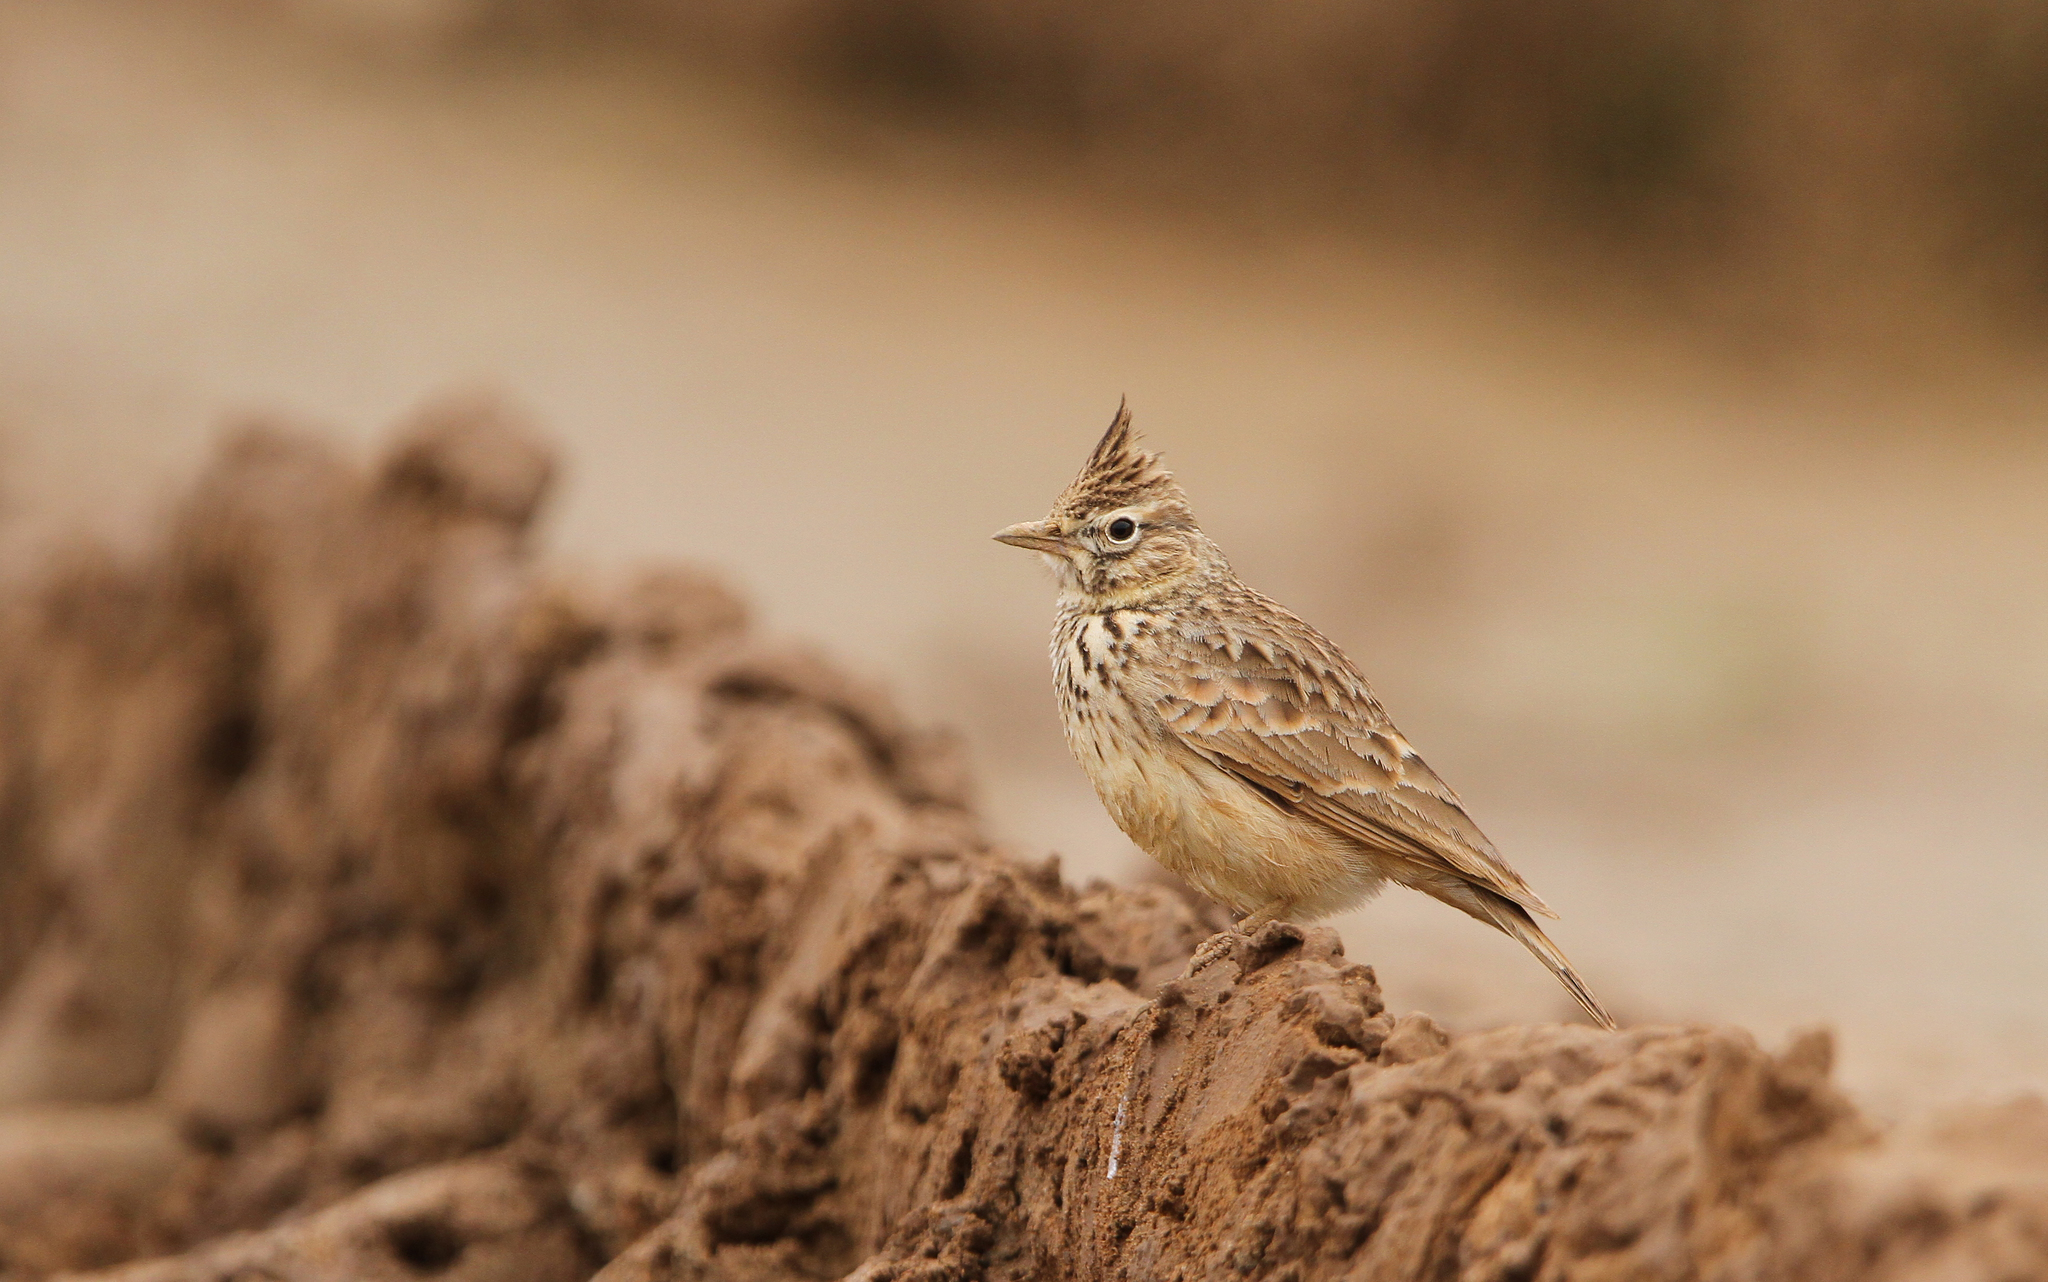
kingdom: Animalia
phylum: Chordata
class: Aves
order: Passeriformes
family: Alaudidae
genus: Galerida
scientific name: Galerida cristata
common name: Crested lark
